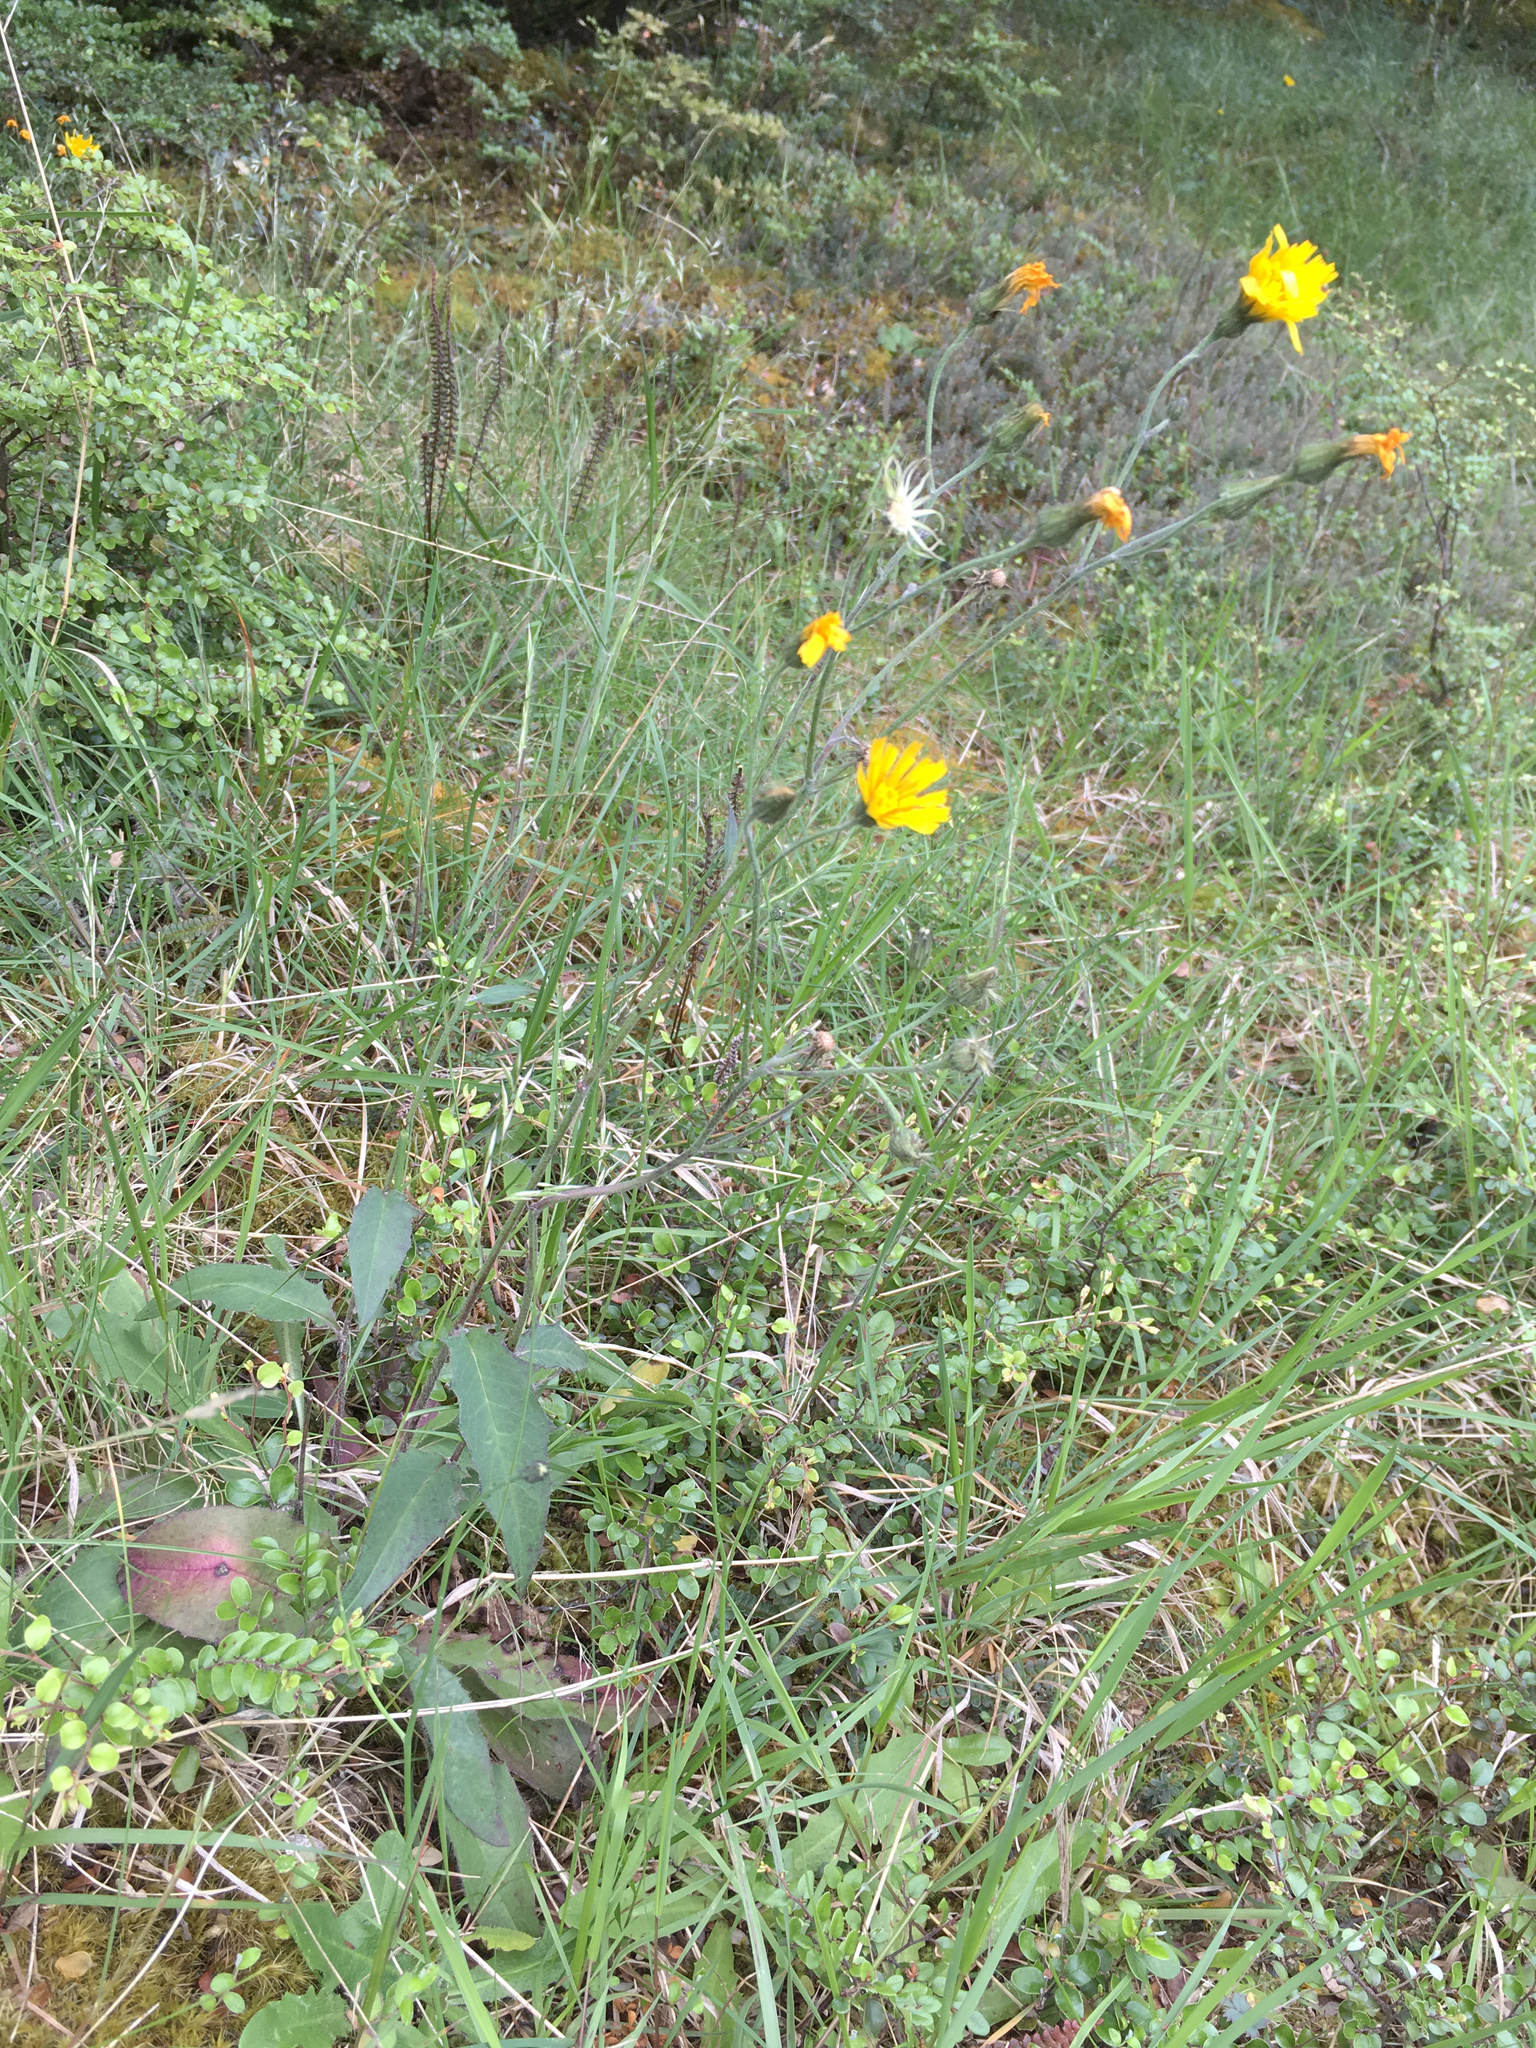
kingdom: Plantae
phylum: Tracheophyta
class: Magnoliopsida
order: Asterales
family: Asteraceae
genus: Hieracium
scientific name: Hieracium lepidulum
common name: Irregular-toothed hawkweed
